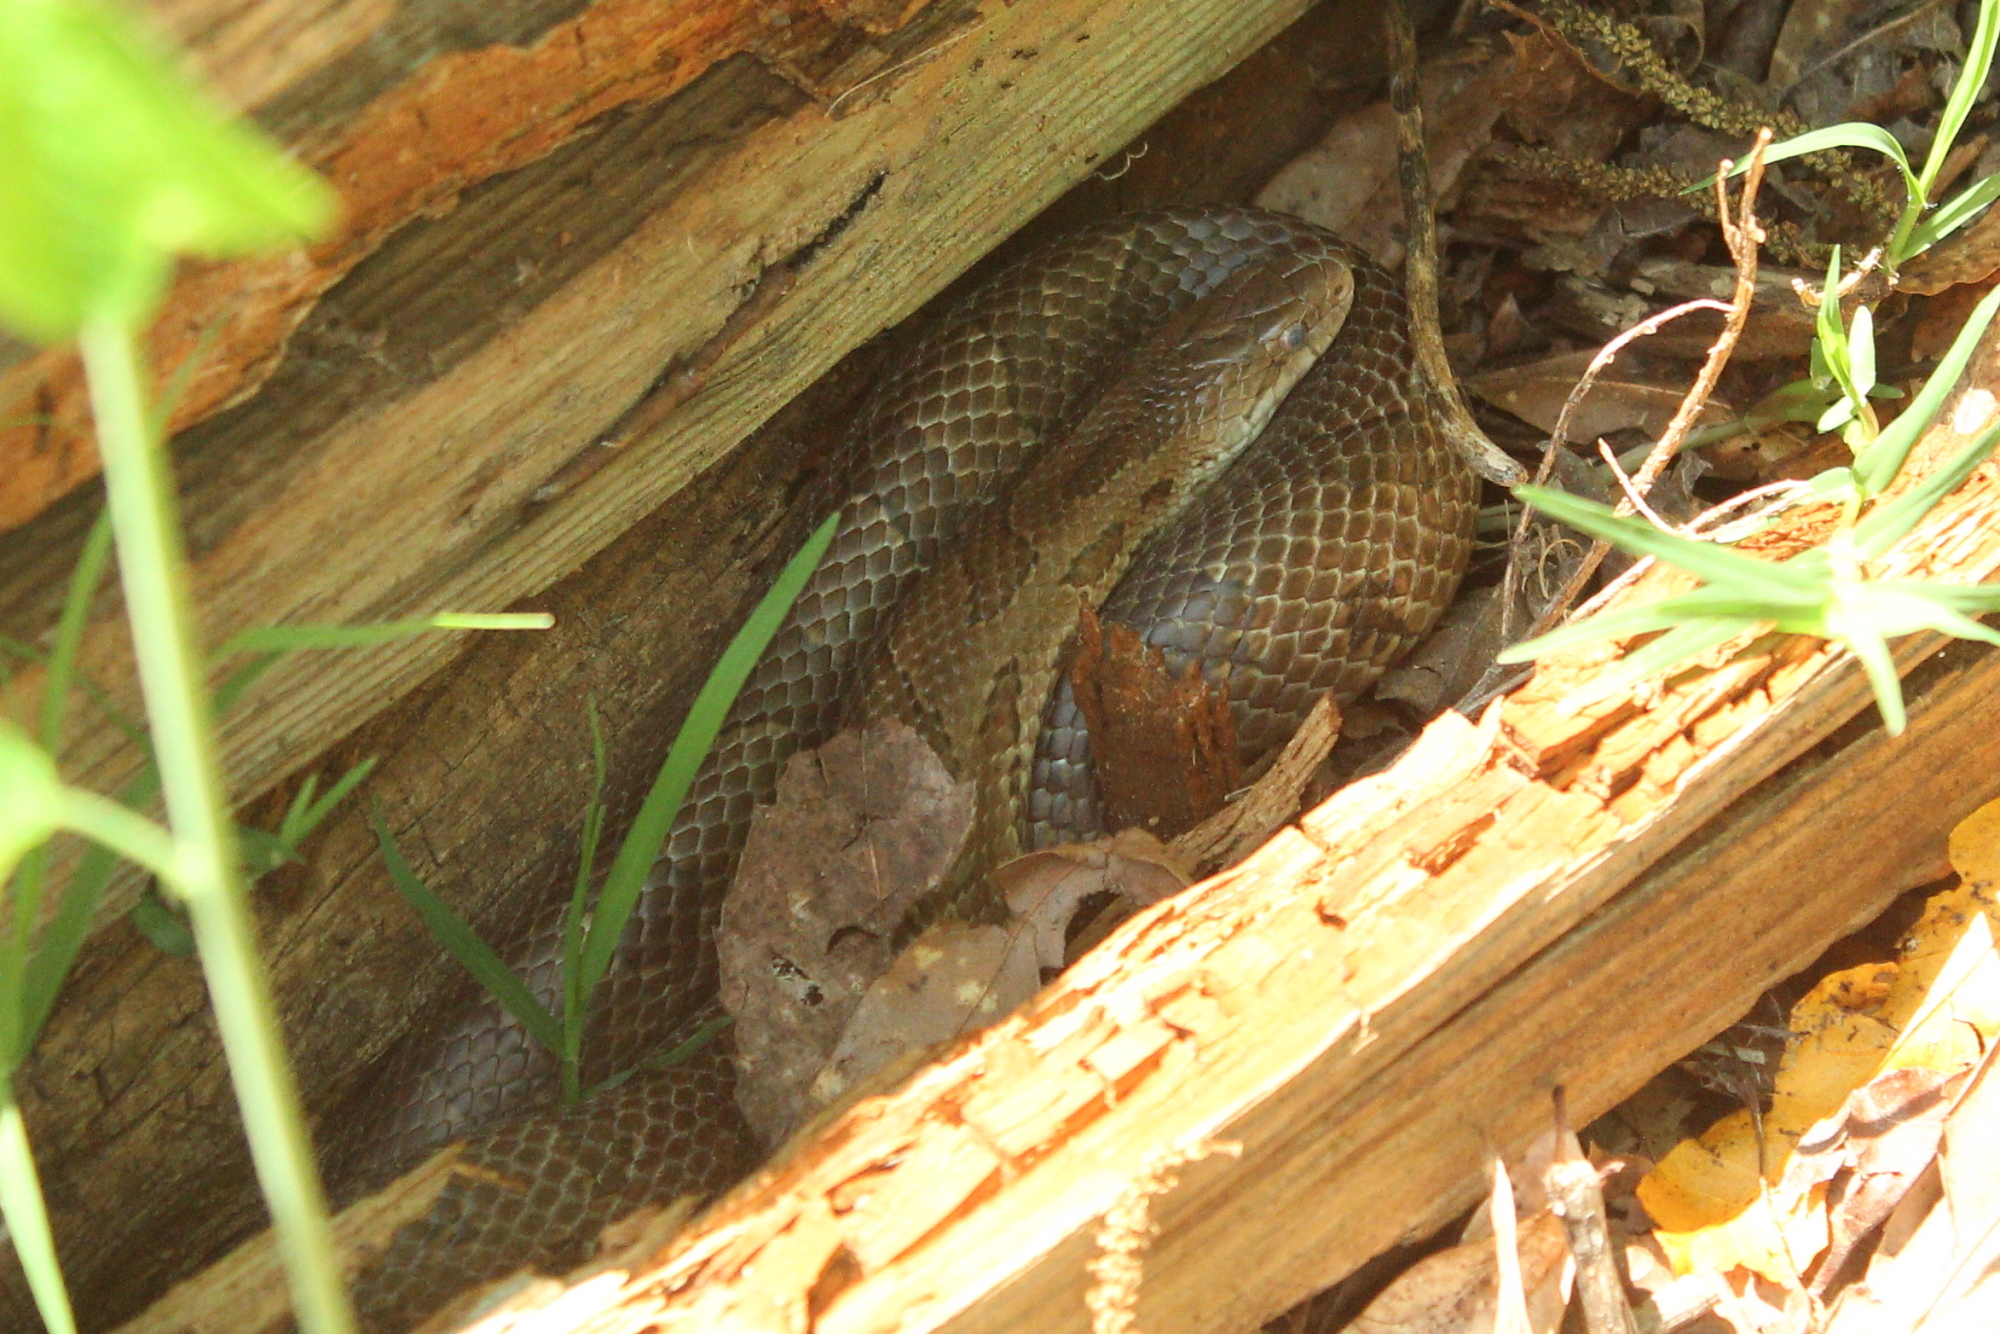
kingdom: Animalia
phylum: Chordata
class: Squamata
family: Colubridae
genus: Lampropeltis
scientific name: Lampropeltis calligaster
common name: Prairie kingsnake
